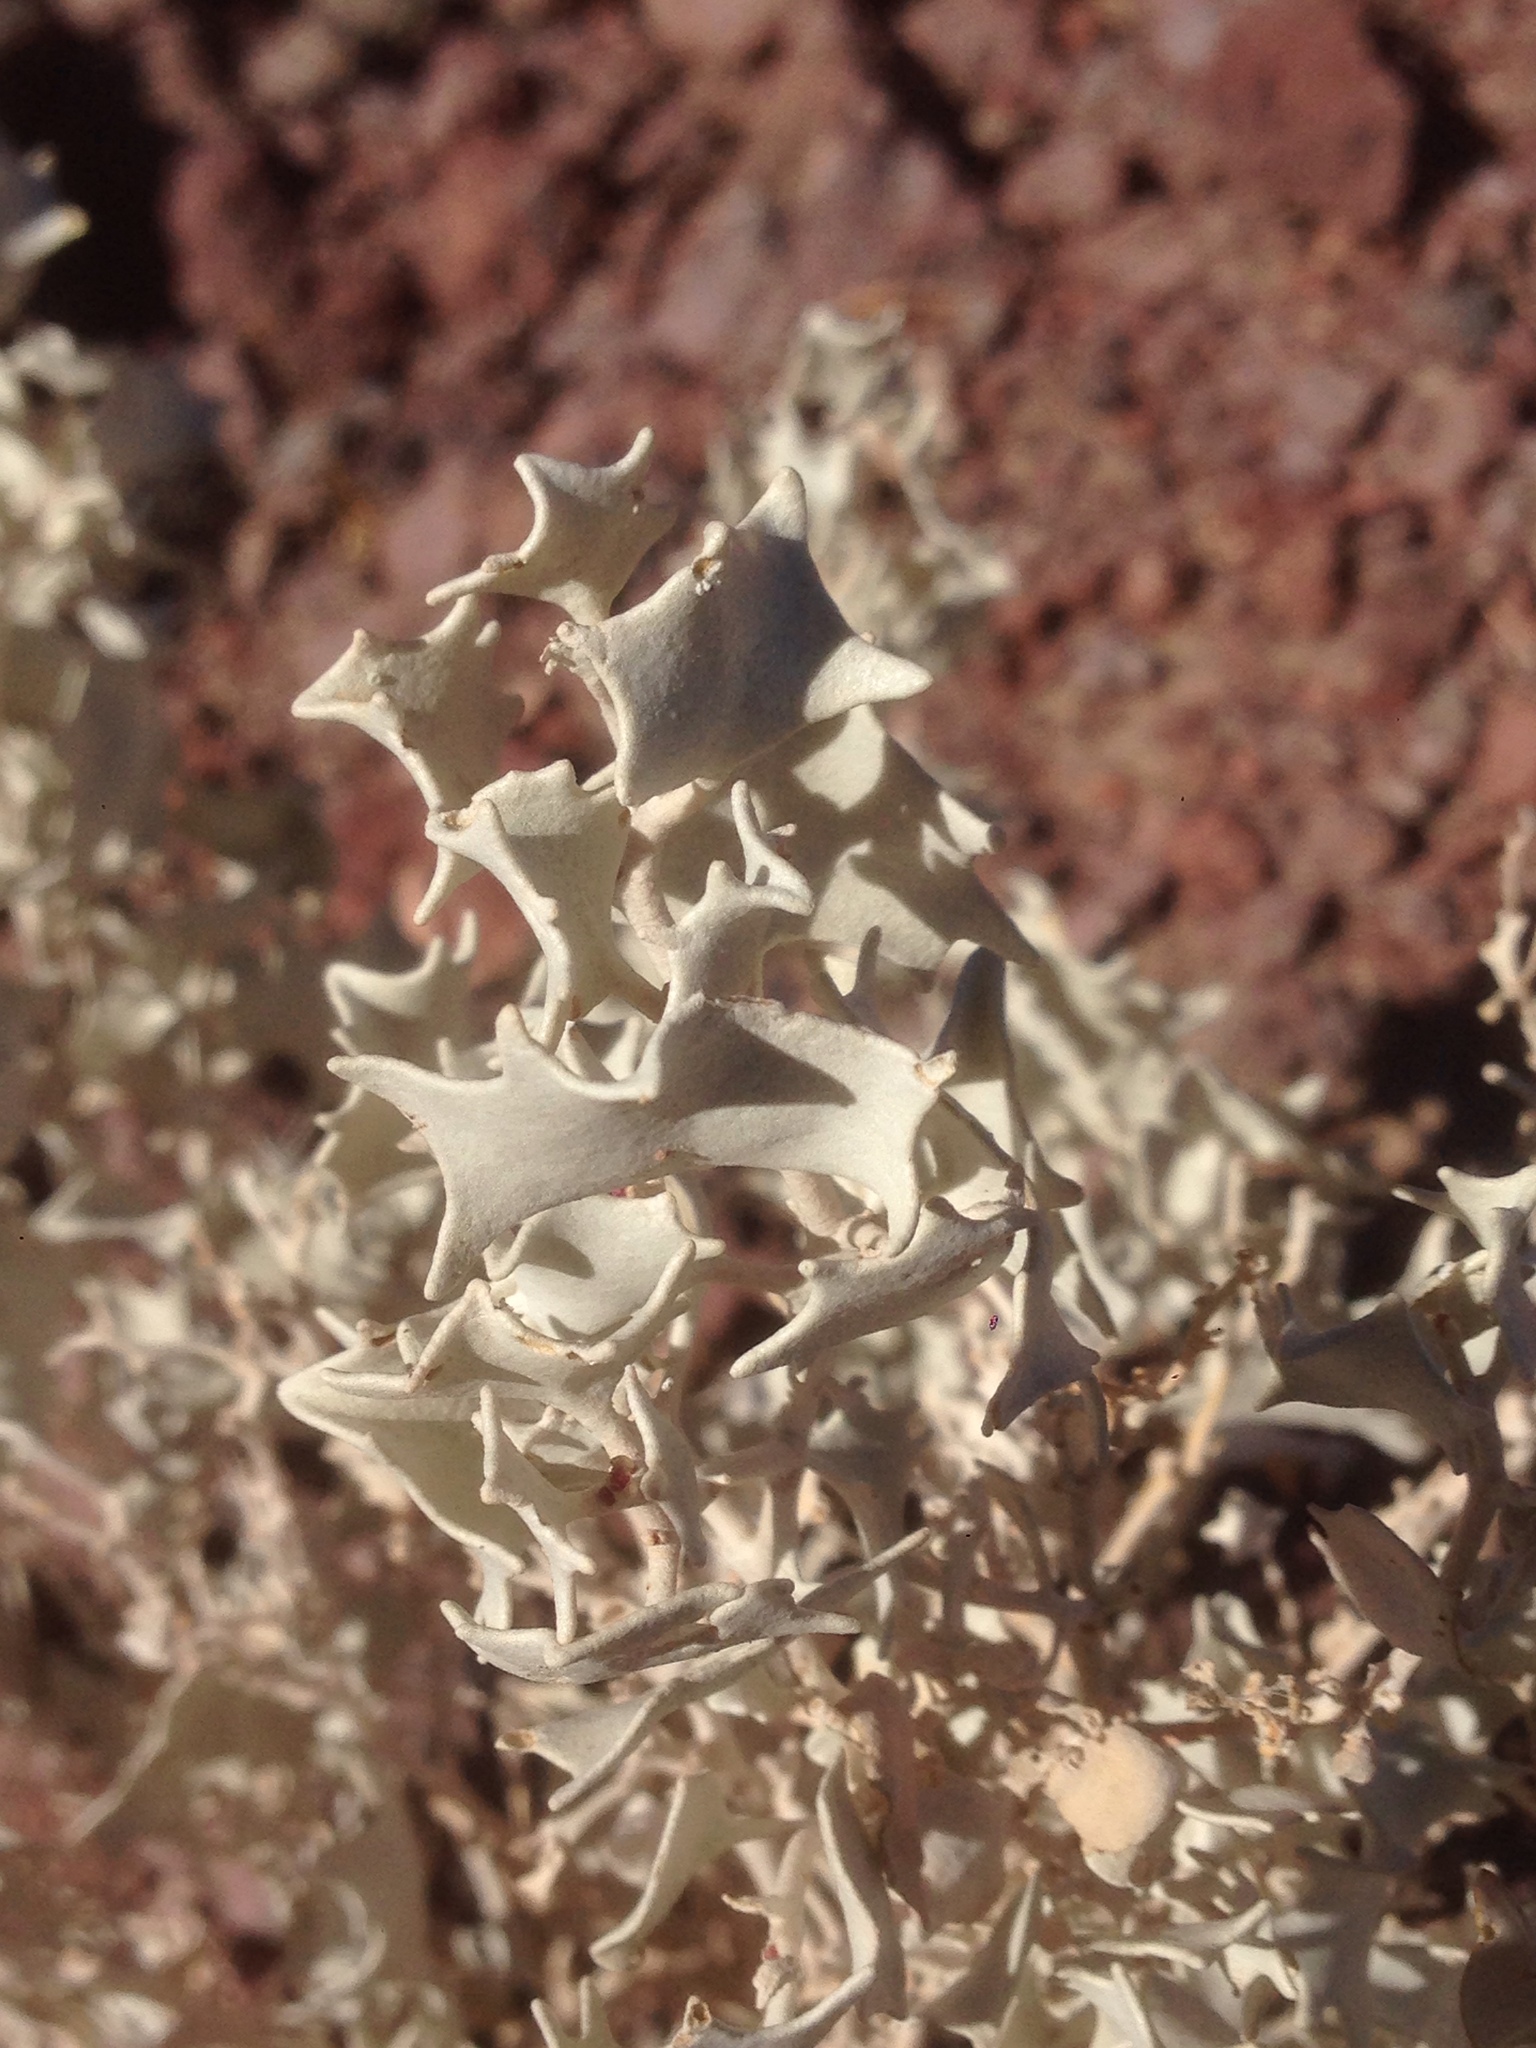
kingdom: Plantae
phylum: Tracheophyta
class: Magnoliopsida
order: Caryophyllales
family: Amaranthaceae
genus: Atriplex
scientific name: Atriplex hymenelytra
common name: Desert-holly
